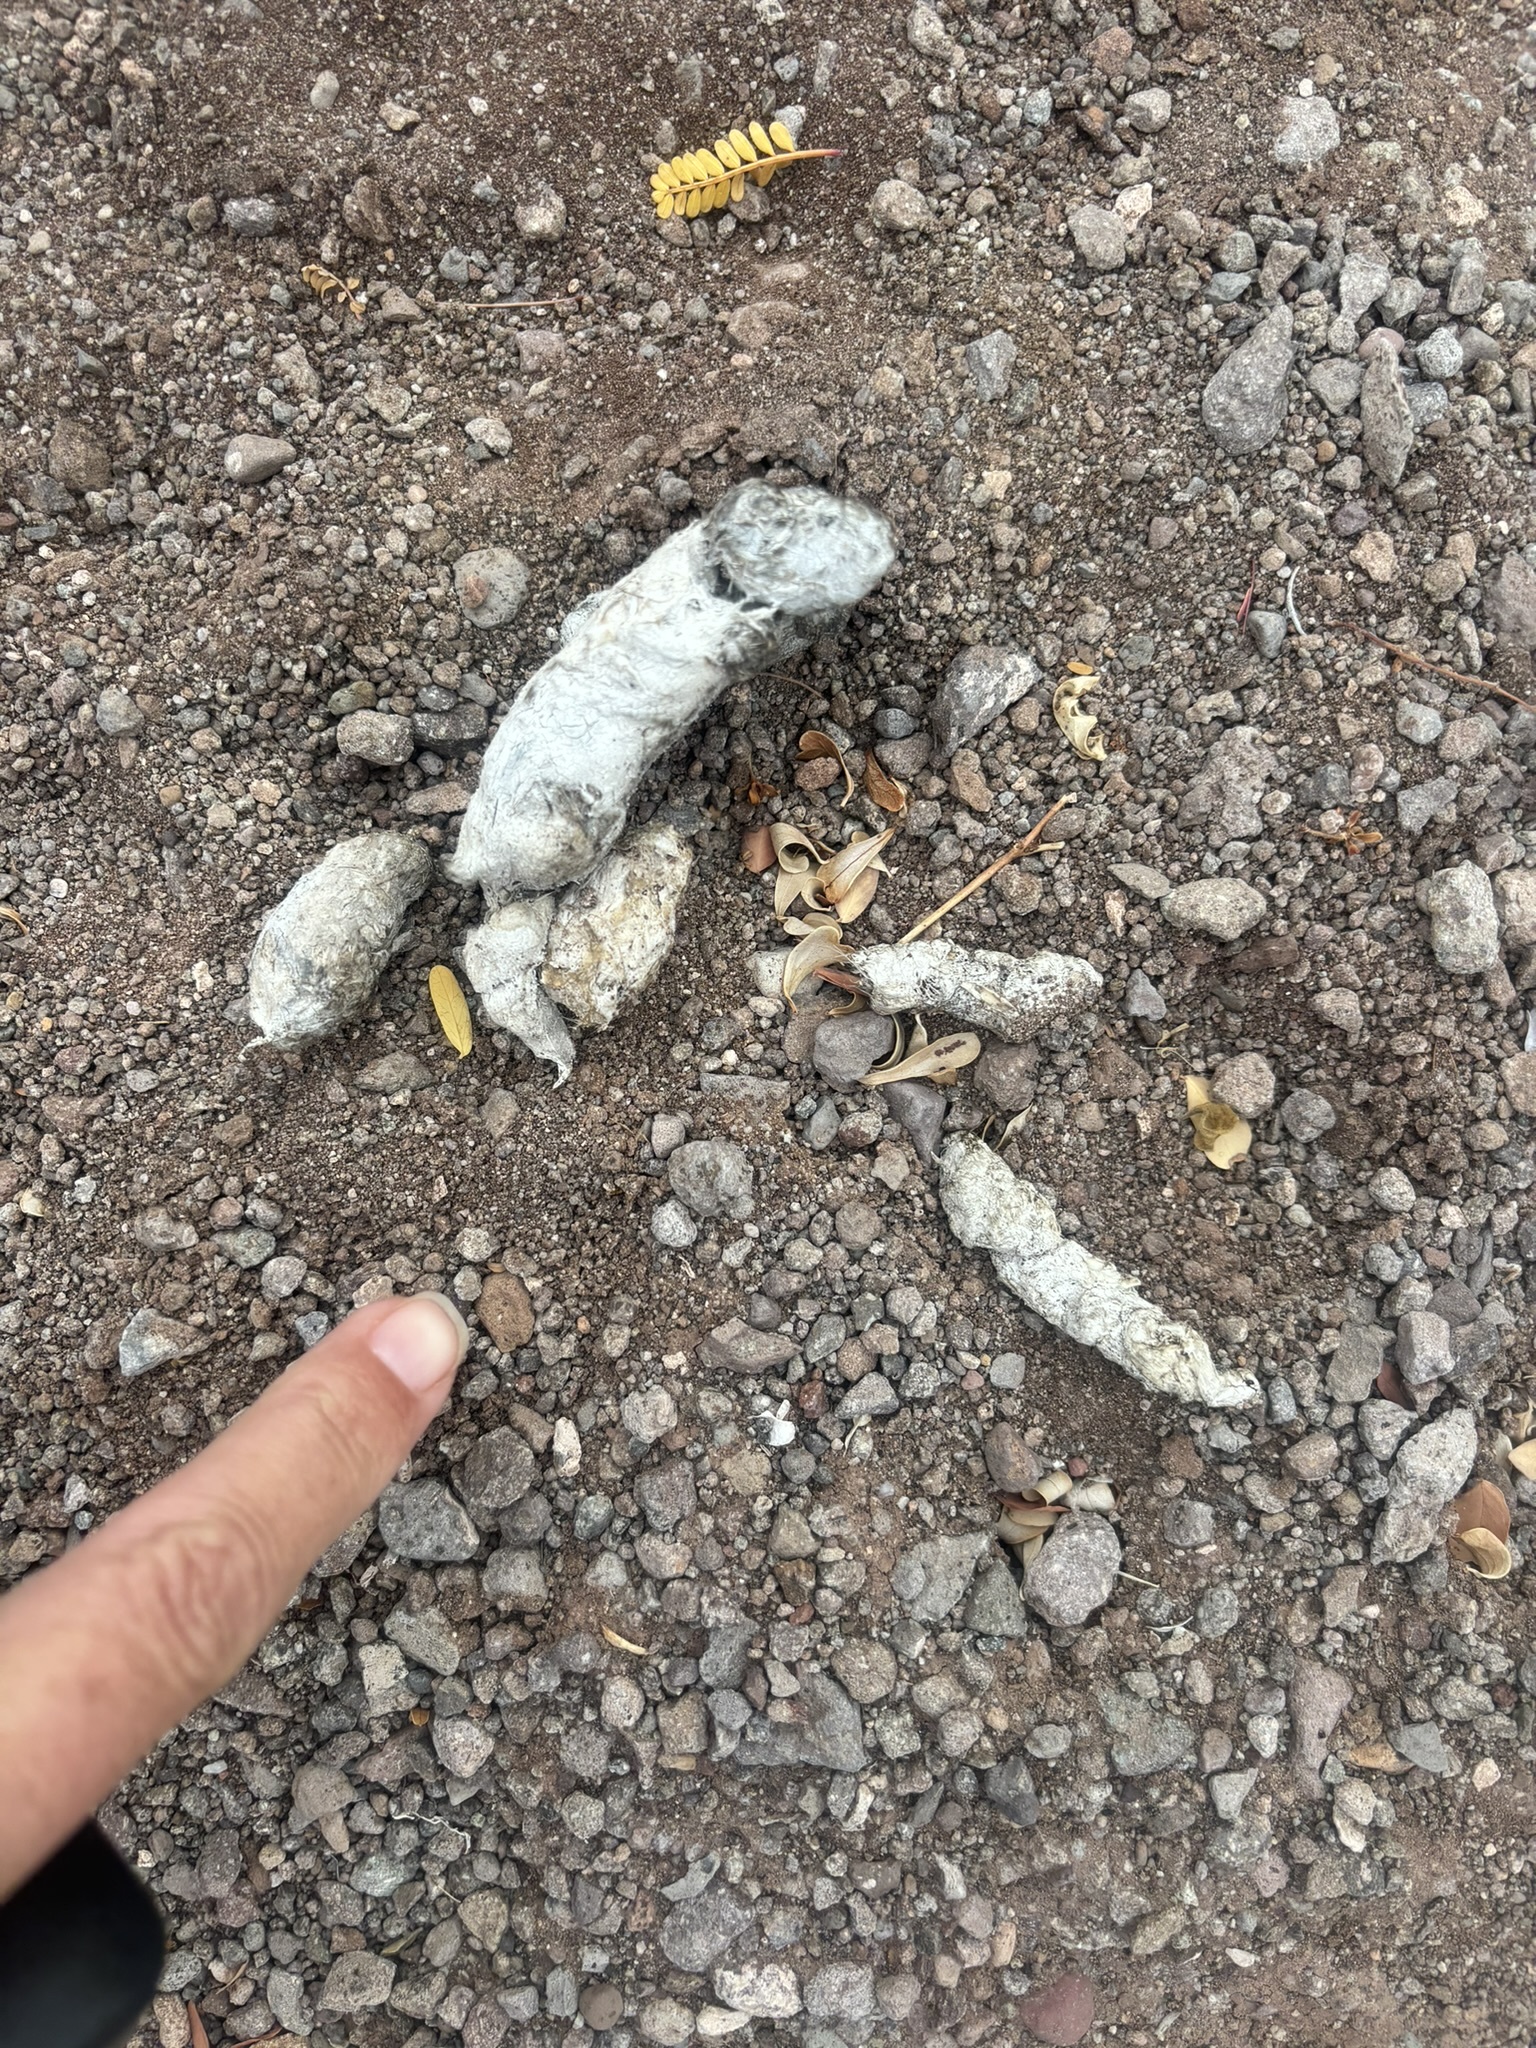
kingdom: Animalia
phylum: Chordata
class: Mammalia
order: Carnivora
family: Felidae
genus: Lynx
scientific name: Lynx rufus
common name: Bobcat
